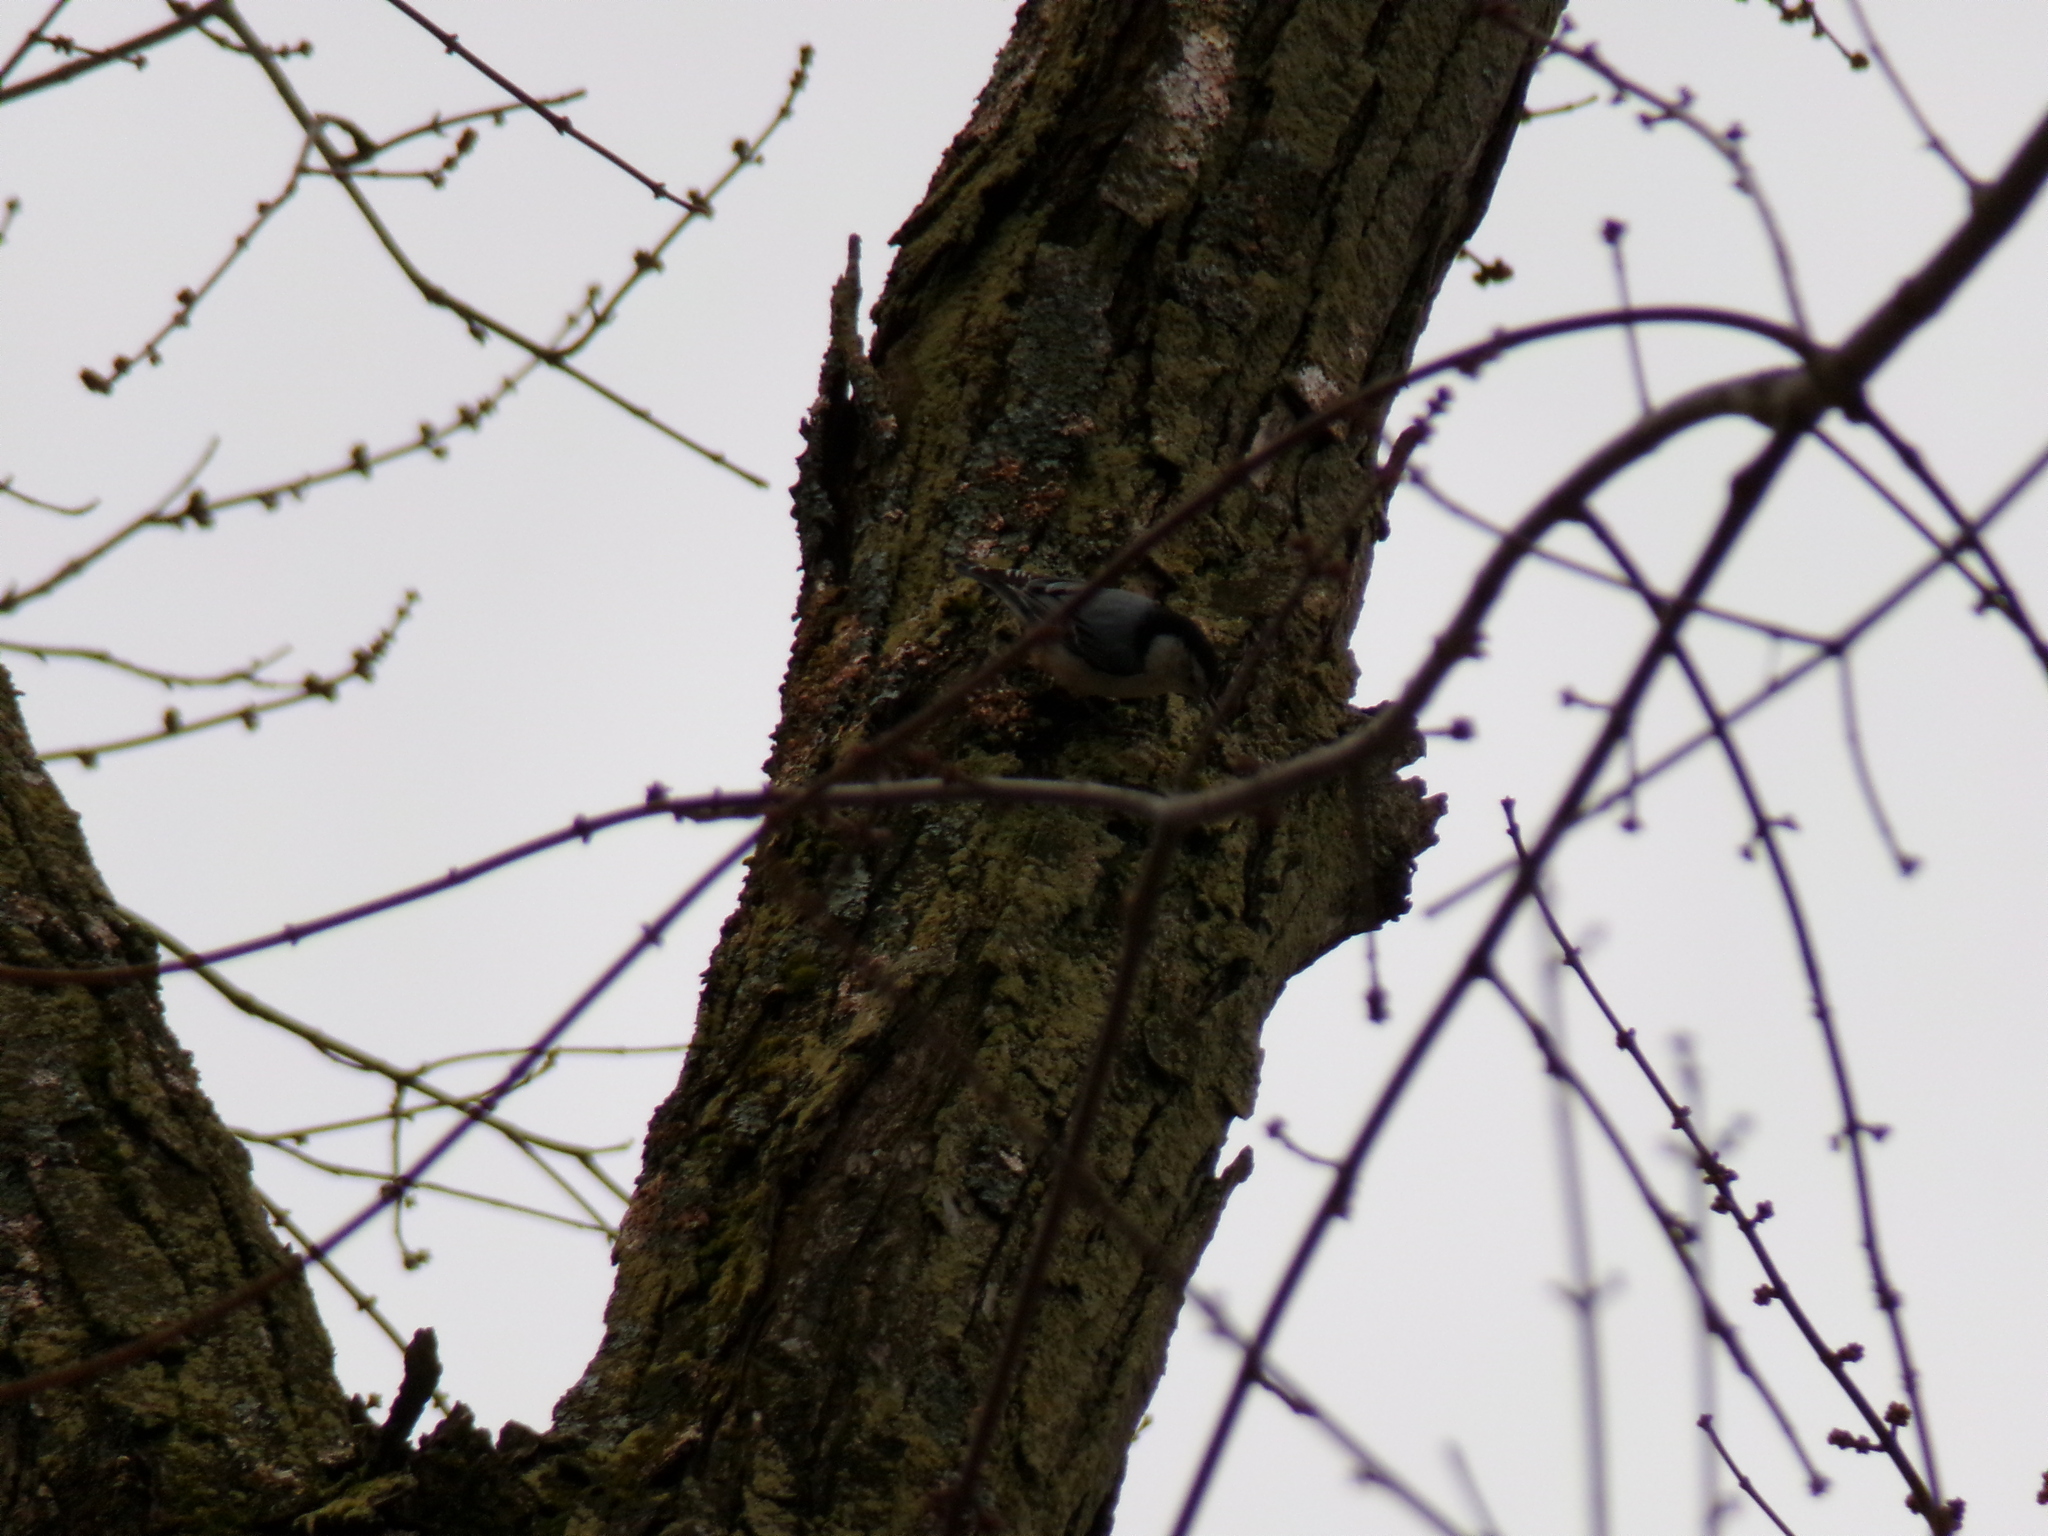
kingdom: Animalia
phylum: Chordata
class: Aves
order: Passeriformes
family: Sittidae
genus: Sitta
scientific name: Sitta carolinensis
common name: White-breasted nuthatch
